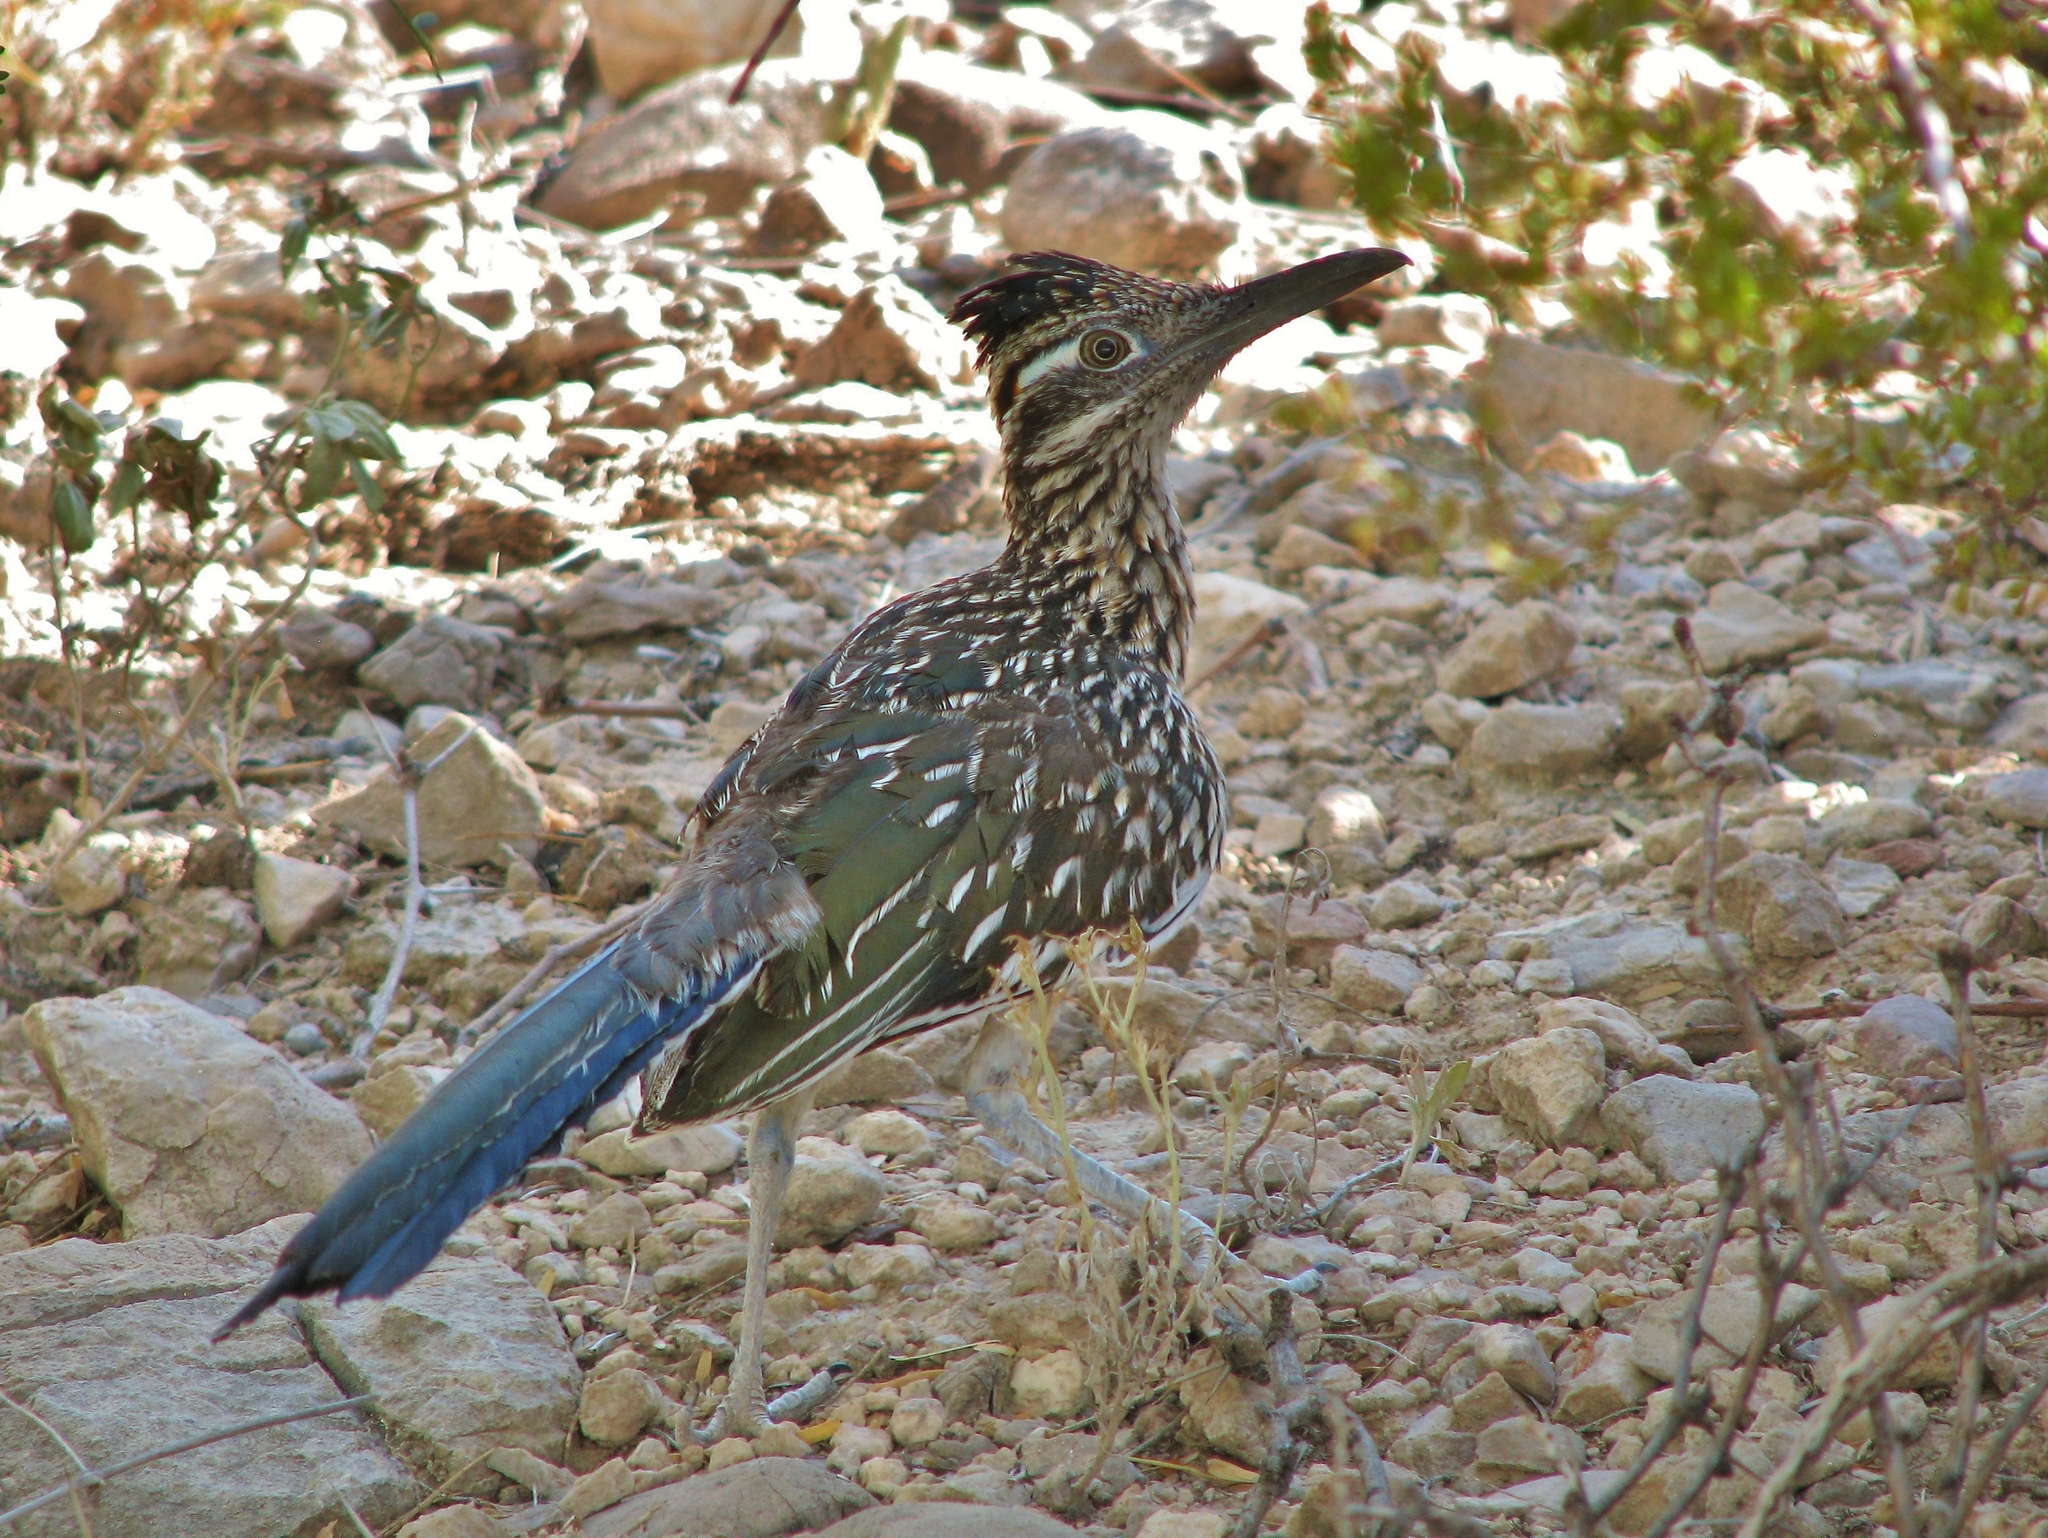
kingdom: Animalia
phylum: Chordata
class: Aves
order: Cuculiformes
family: Cuculidae
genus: Geococcyx
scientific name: Geococcyx californianus
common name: Greater roadrunner
